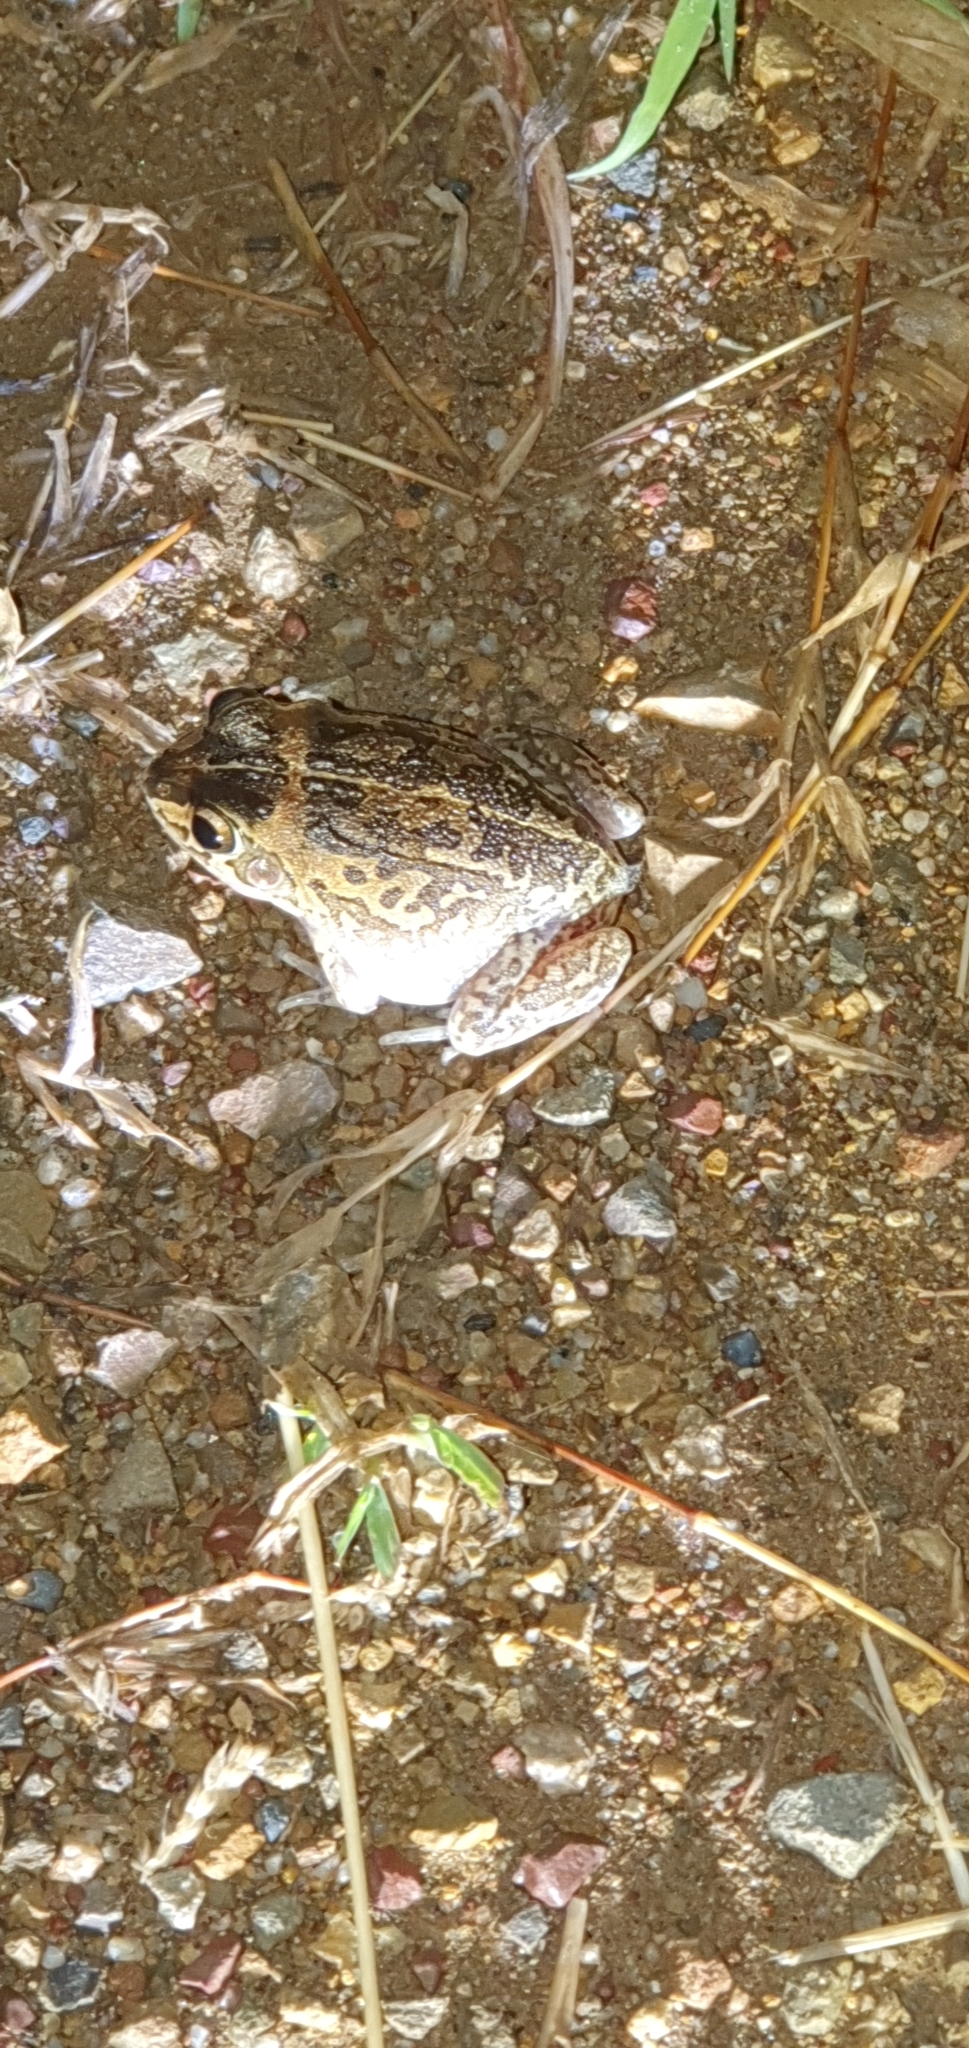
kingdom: Animalia
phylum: Chordata
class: Amphibia
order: Anura
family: Pelodryadidae
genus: Ranoidea
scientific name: Ranoidea brevipes
